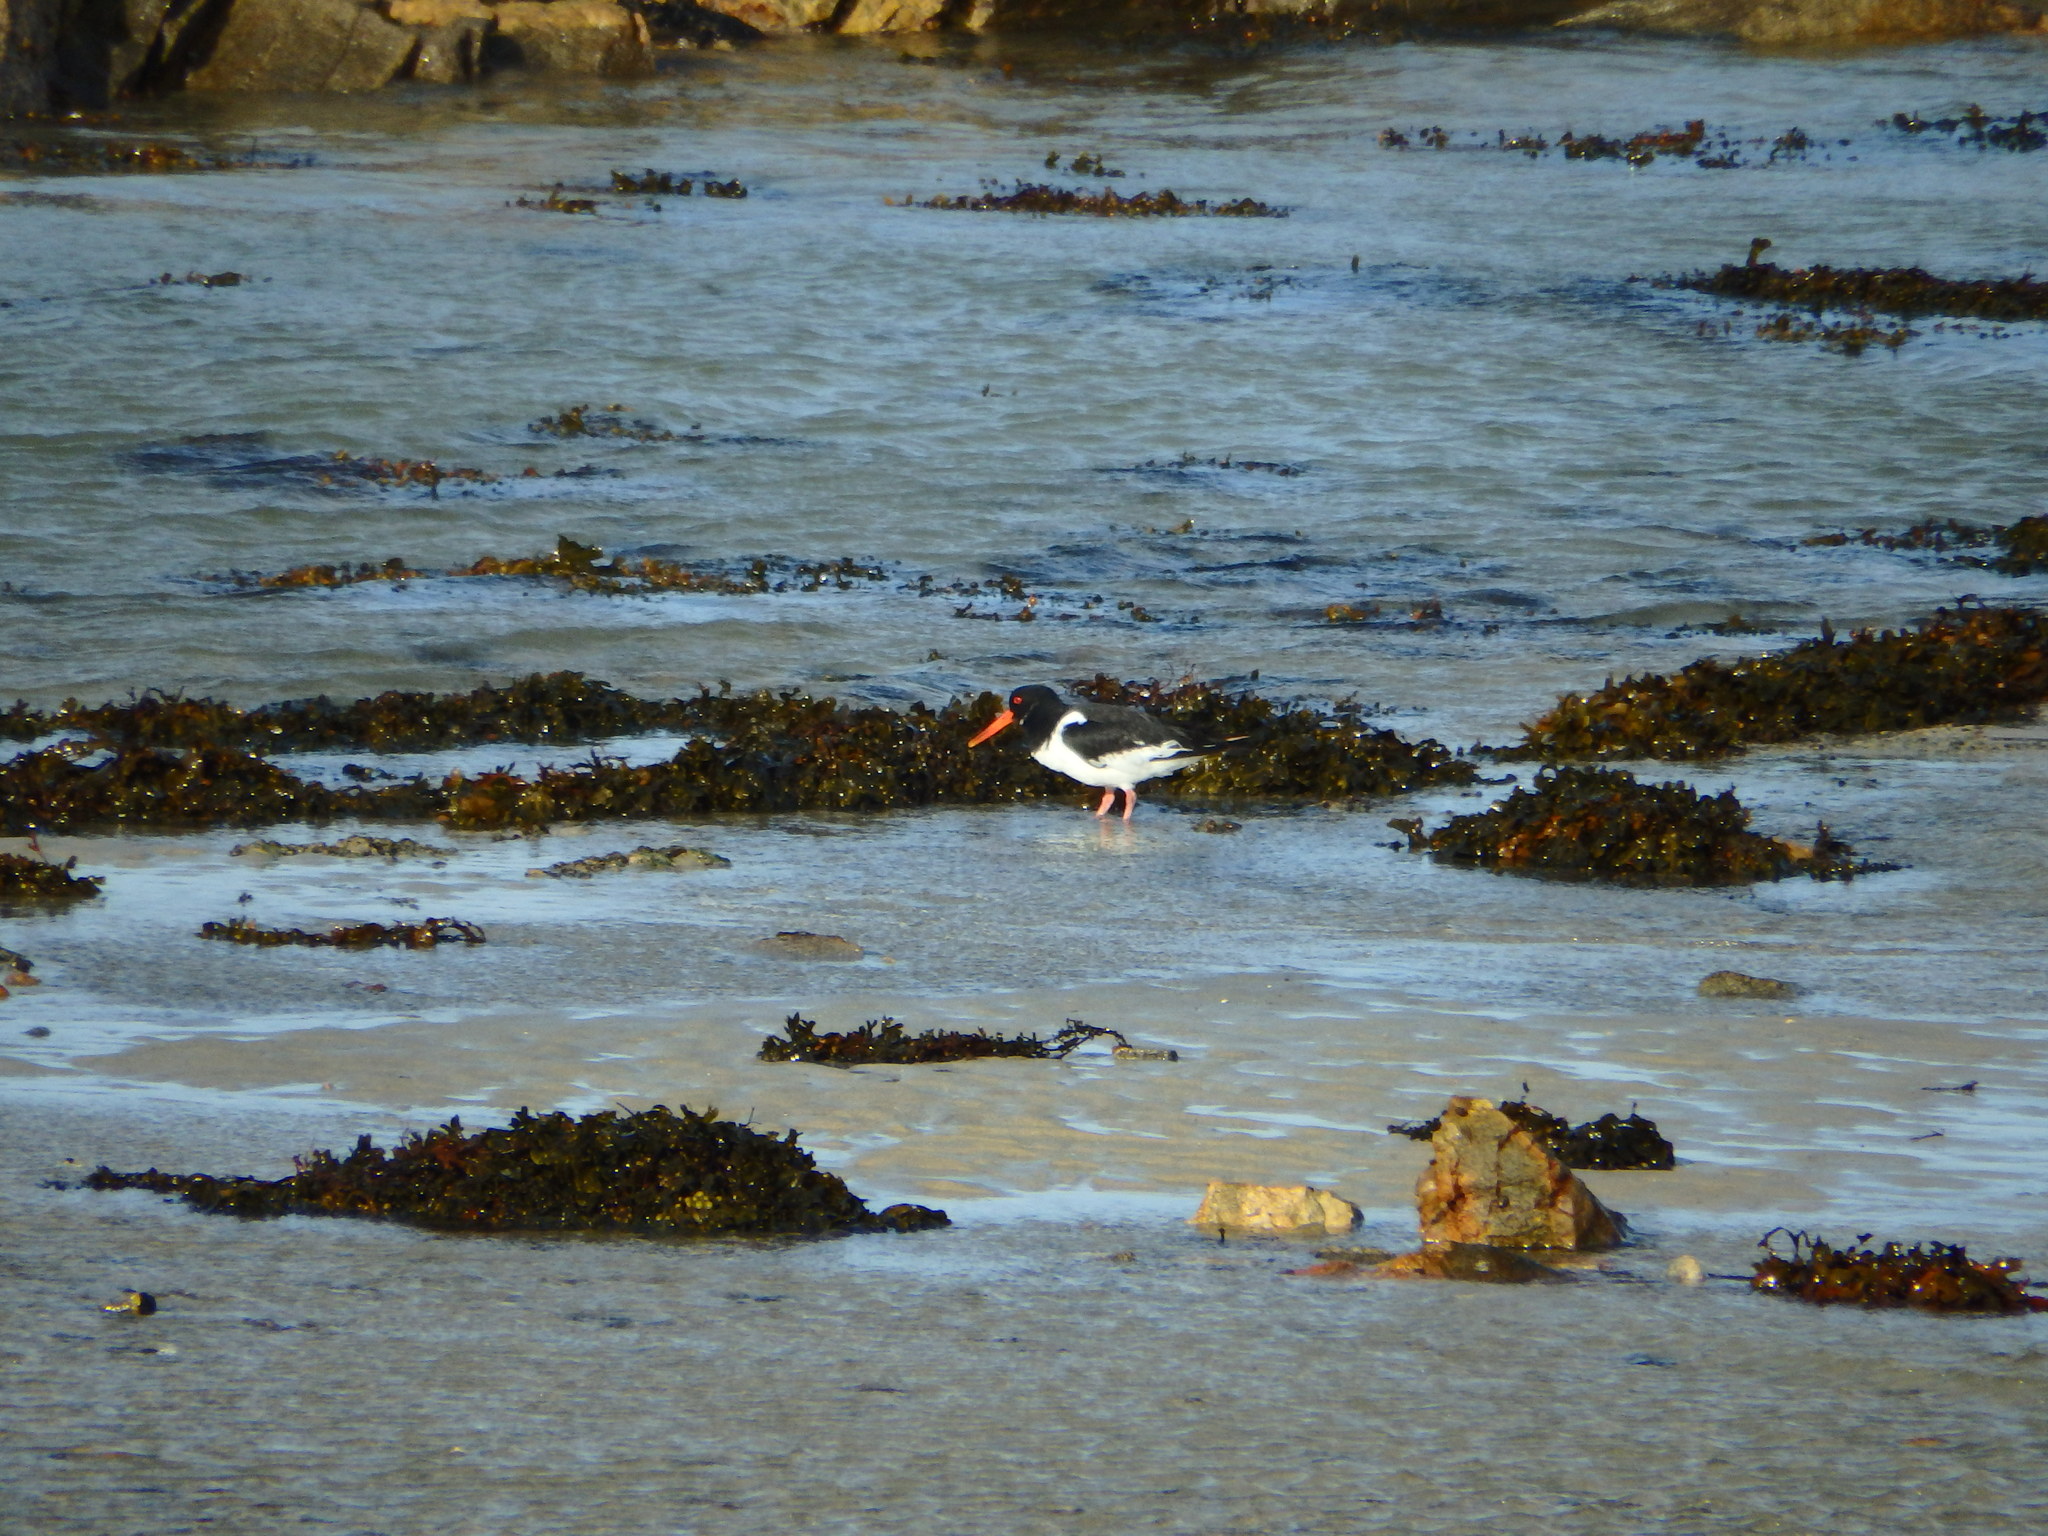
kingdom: Animalia
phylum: Chordata
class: Aves
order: Charadriiformes
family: Haematopodidae
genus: Haematopus
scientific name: Haematopus ostralegus
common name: Eurasian oystercatcher
